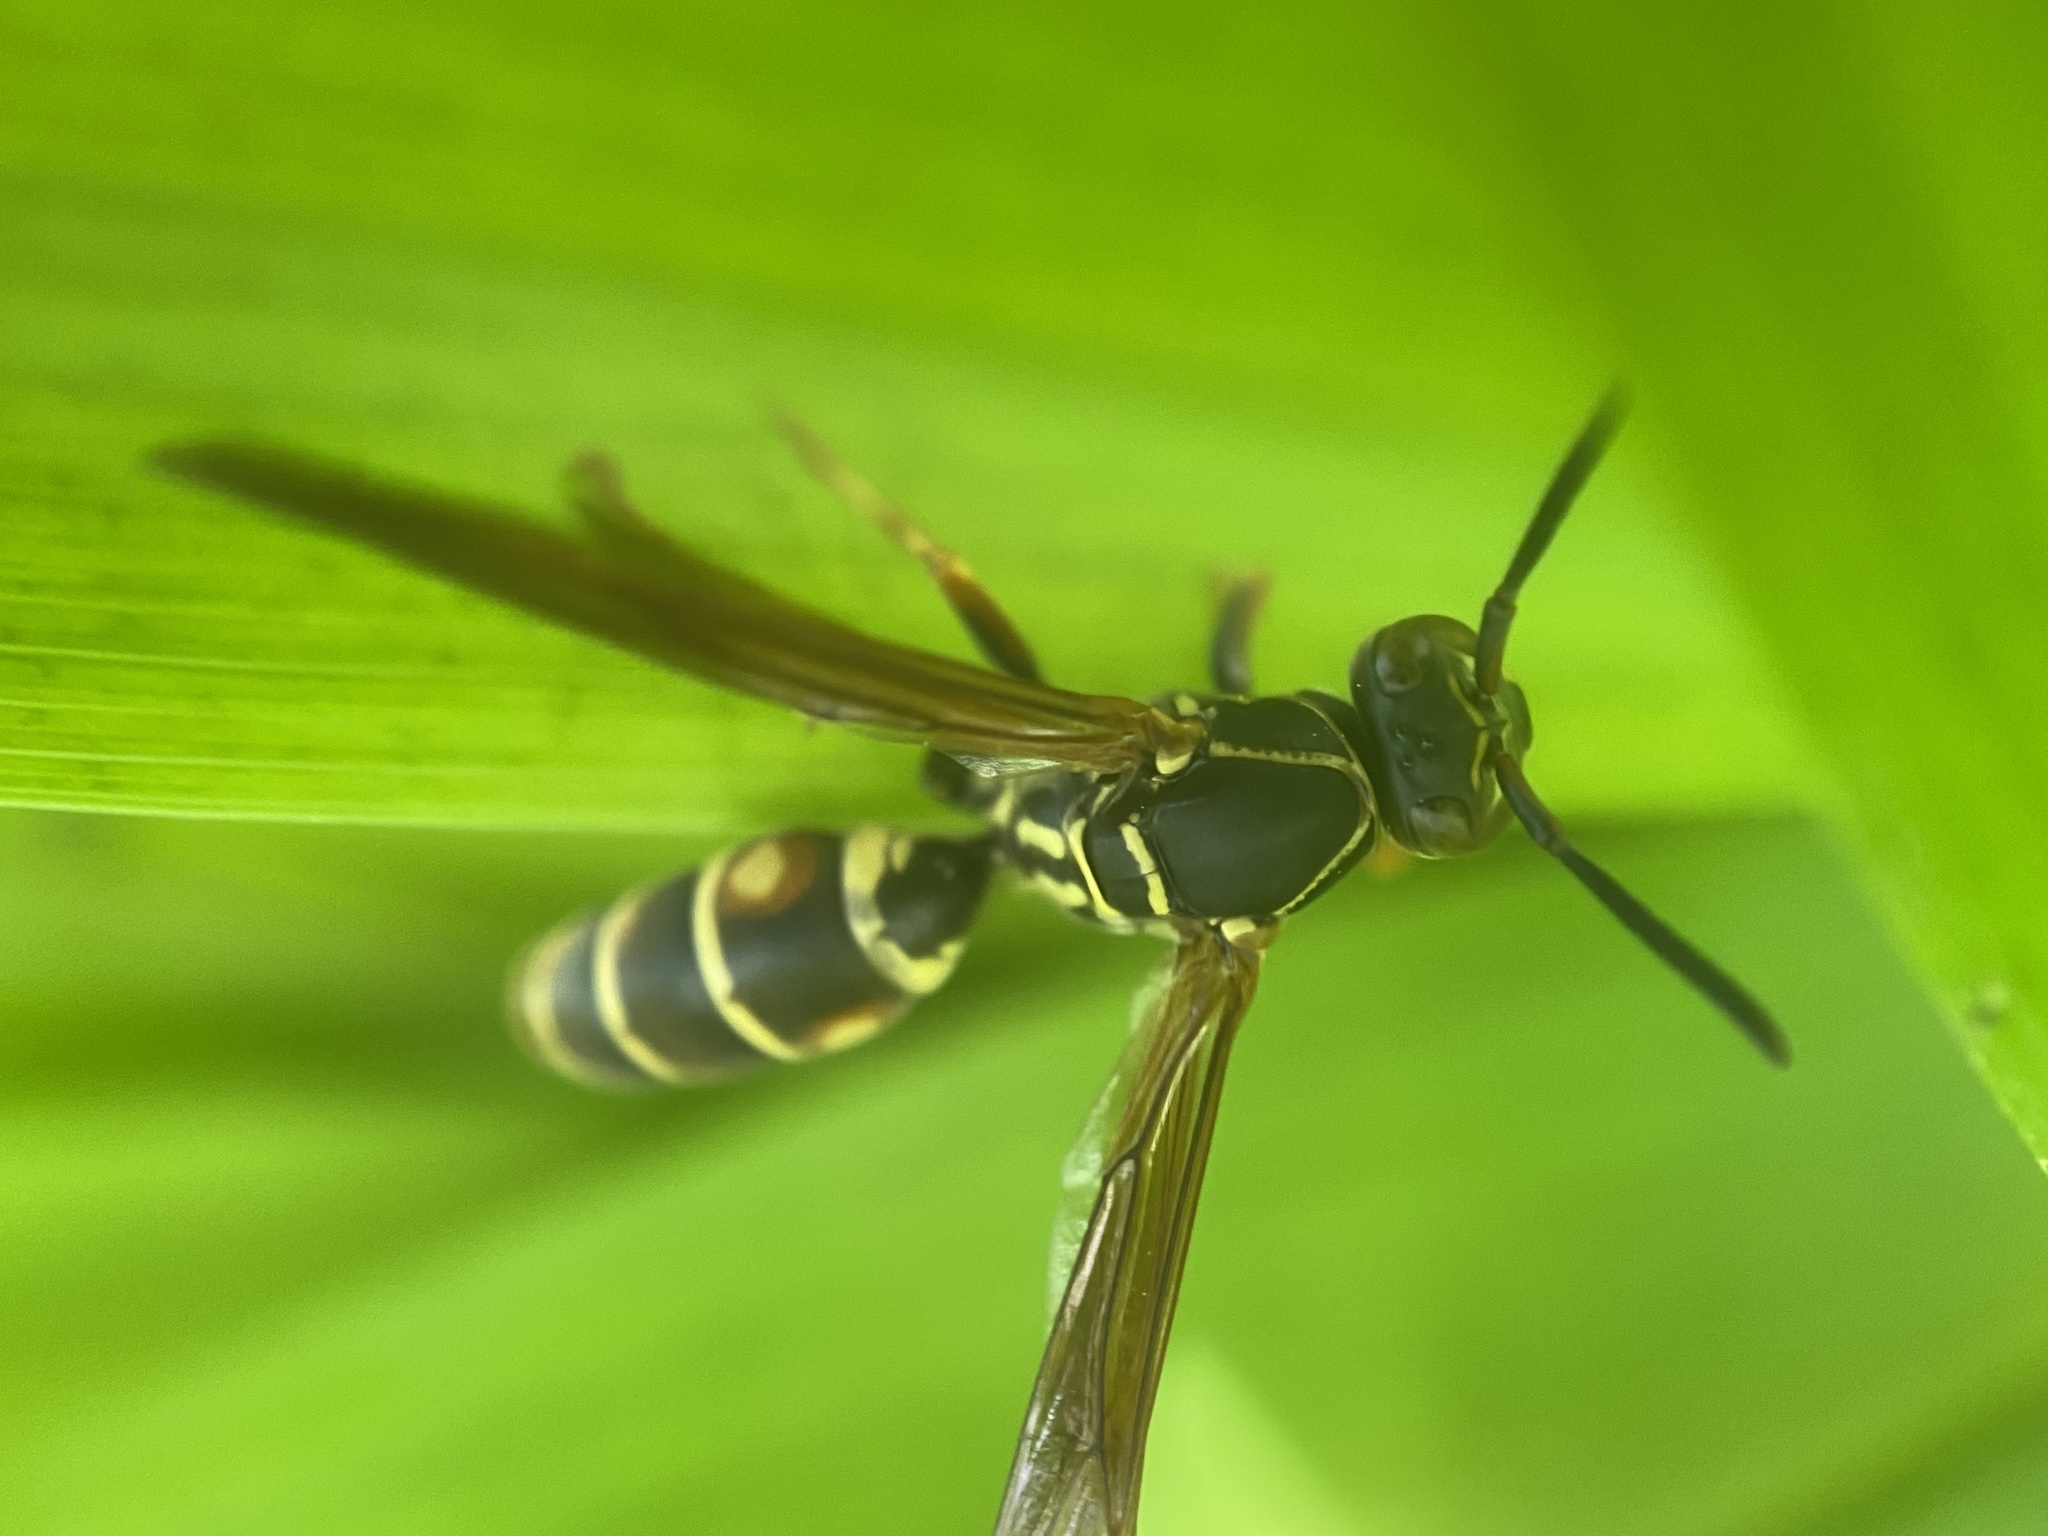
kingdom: Animalia
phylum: Arthropoda
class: Insecta
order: Hymenoptera
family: Eumenidae
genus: Polistes
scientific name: Polistes fuscatus
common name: Dark paper wasp
